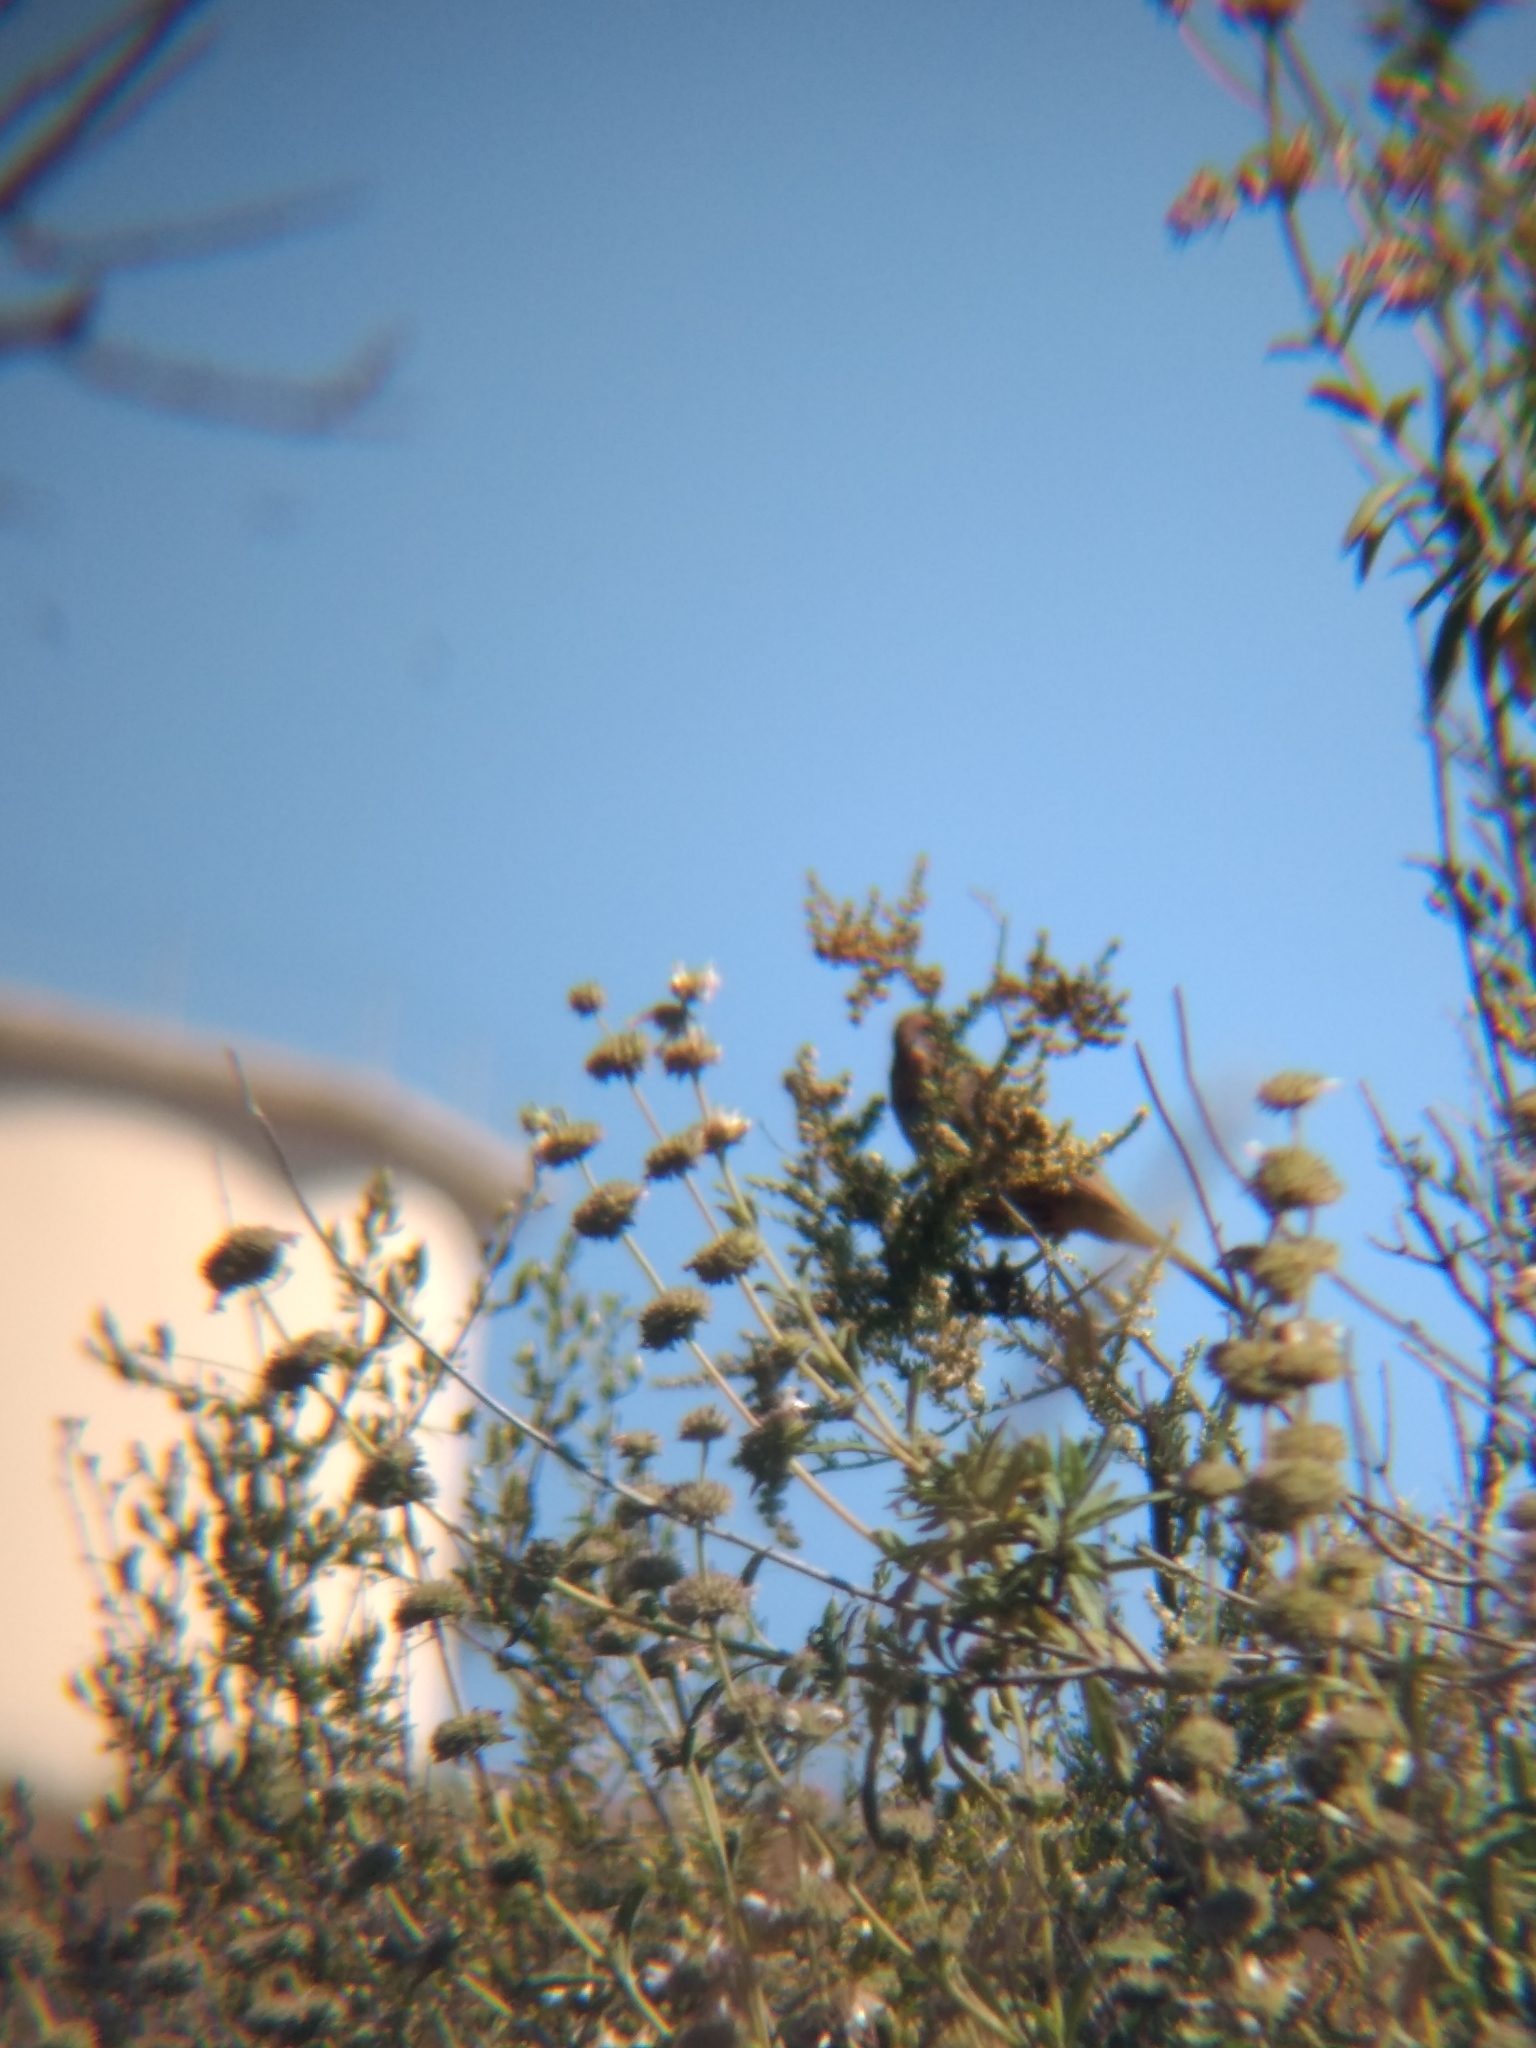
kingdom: Animalia
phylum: Chordata
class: Aves
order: Passeriformes
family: Fringillidae
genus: Haemorhous
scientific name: Haemorhous mexicanus
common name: House finch
